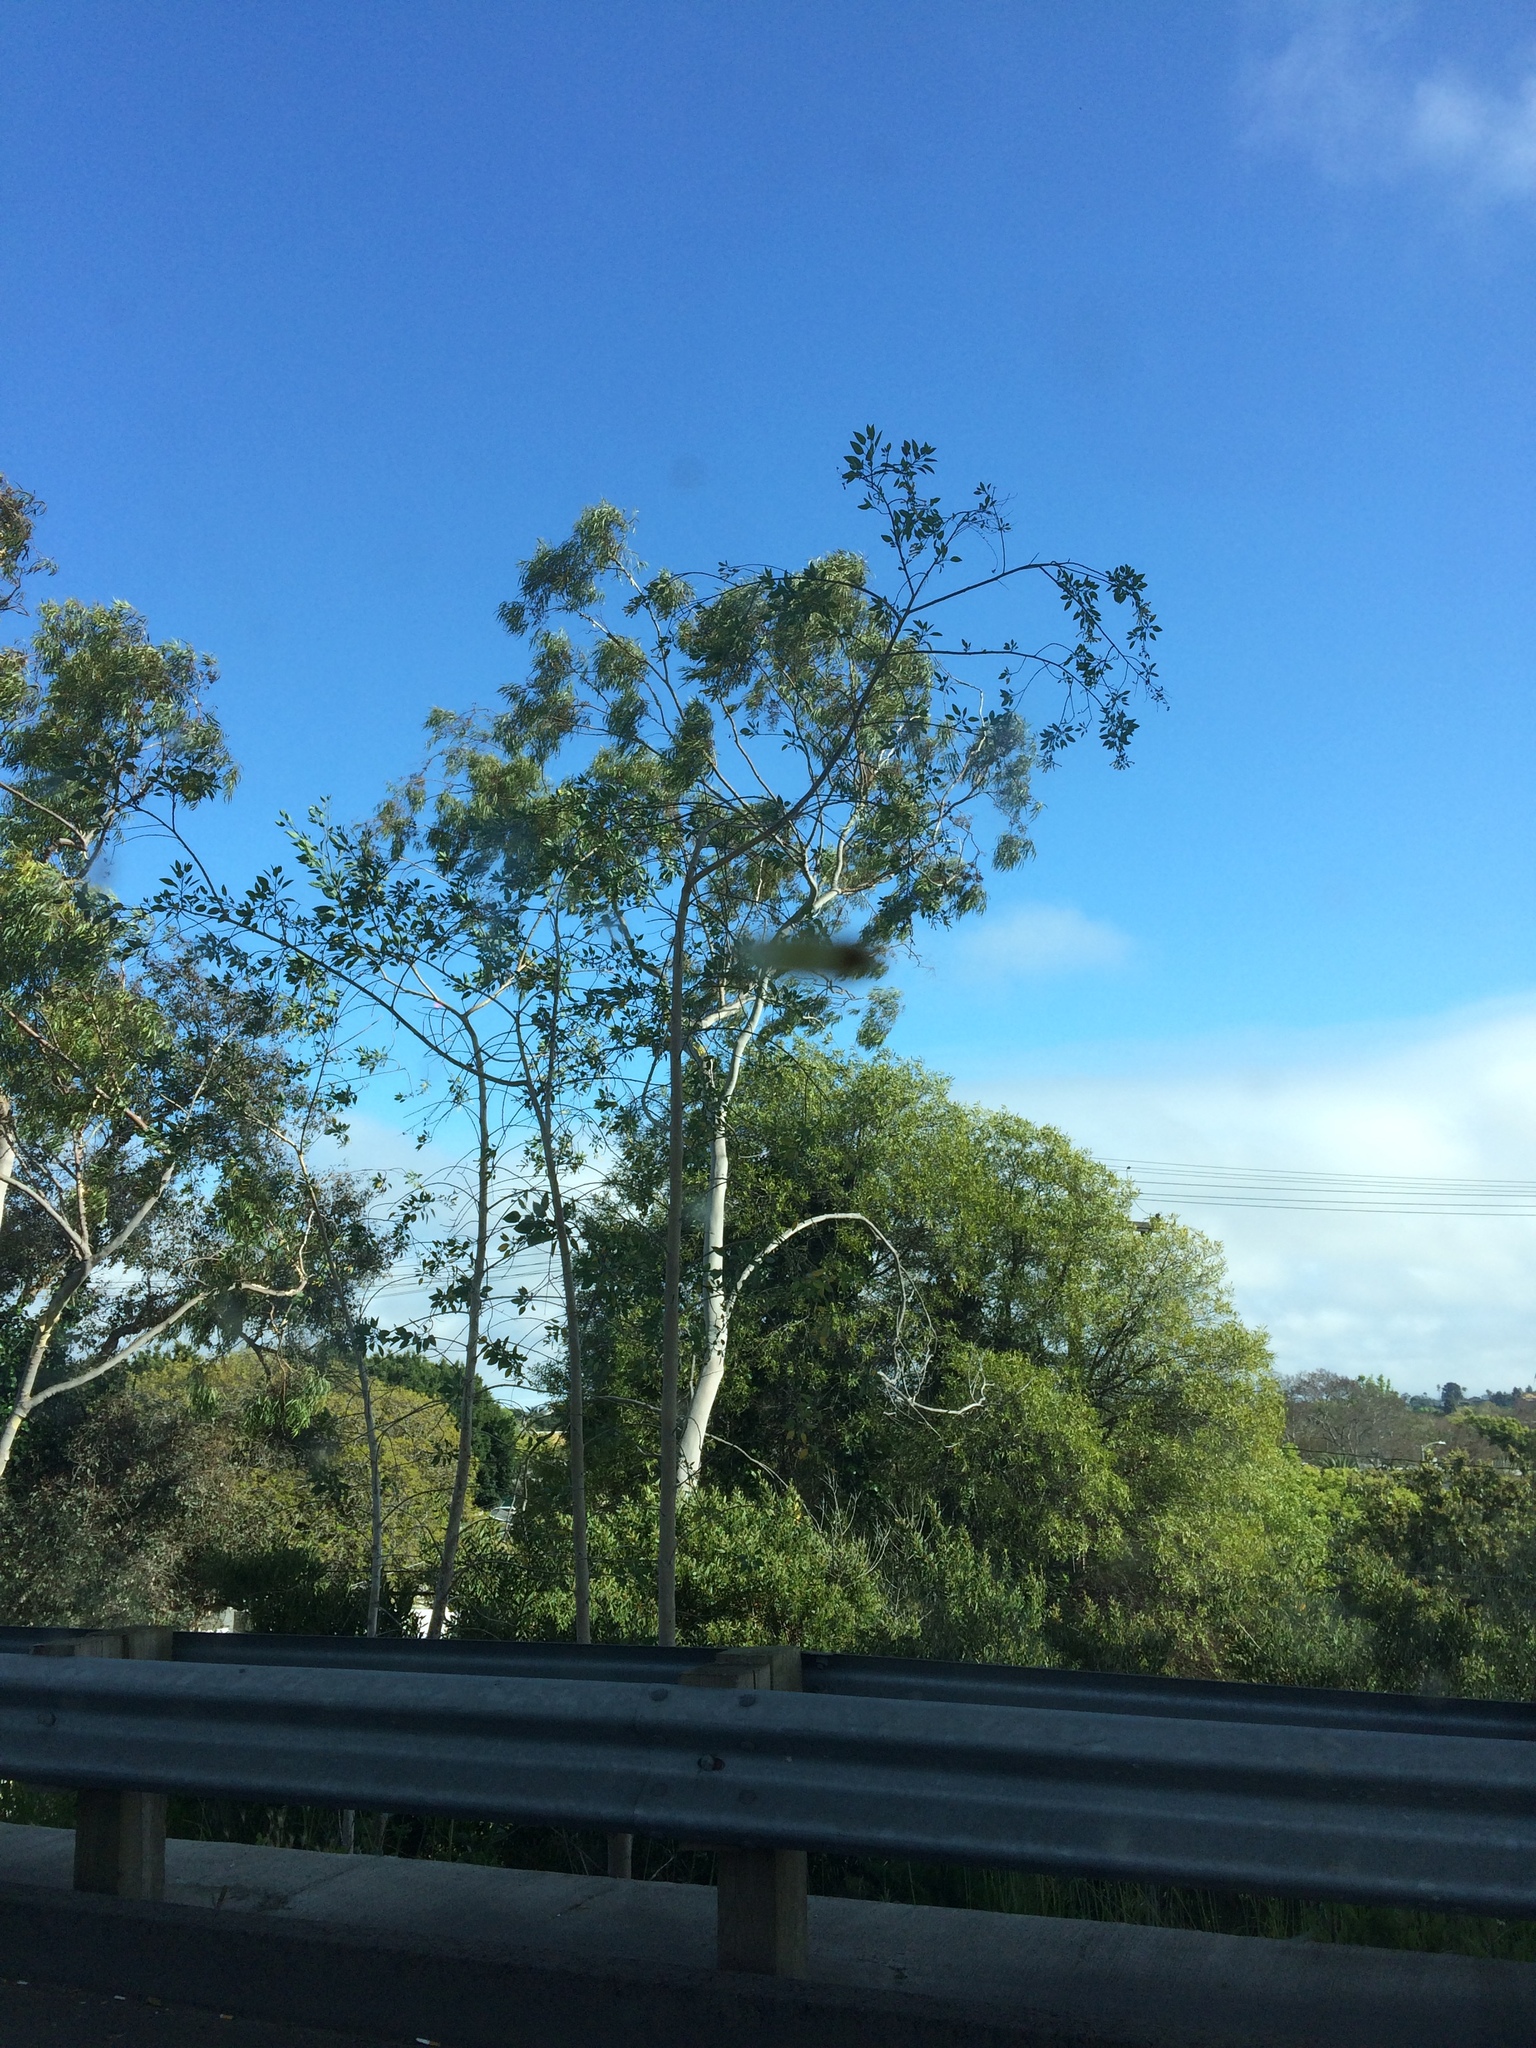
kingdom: Plantae
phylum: Tracheophyta
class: Magnoliopsida
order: Solanales
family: Solanaceae
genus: Nicotiana
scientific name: Nicotiana glauca
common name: Tree tobacco
